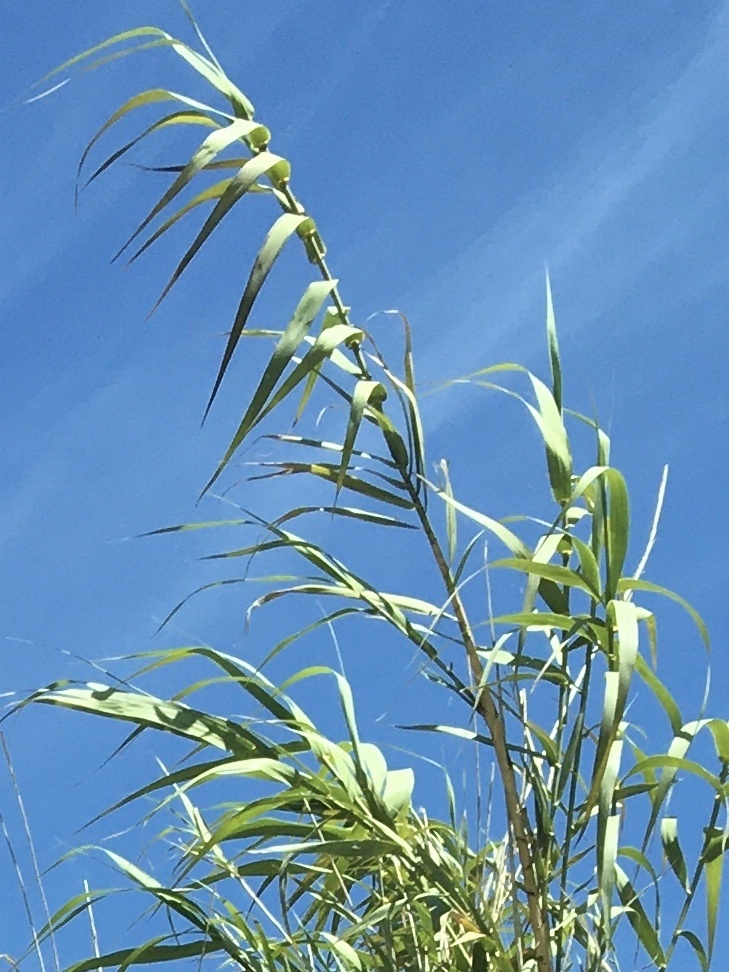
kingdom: Plantae
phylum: Tracheophyta
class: Liliopsida
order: Poales
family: Poaceae
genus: Arundo
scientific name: Arundo donax
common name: Giant reed
